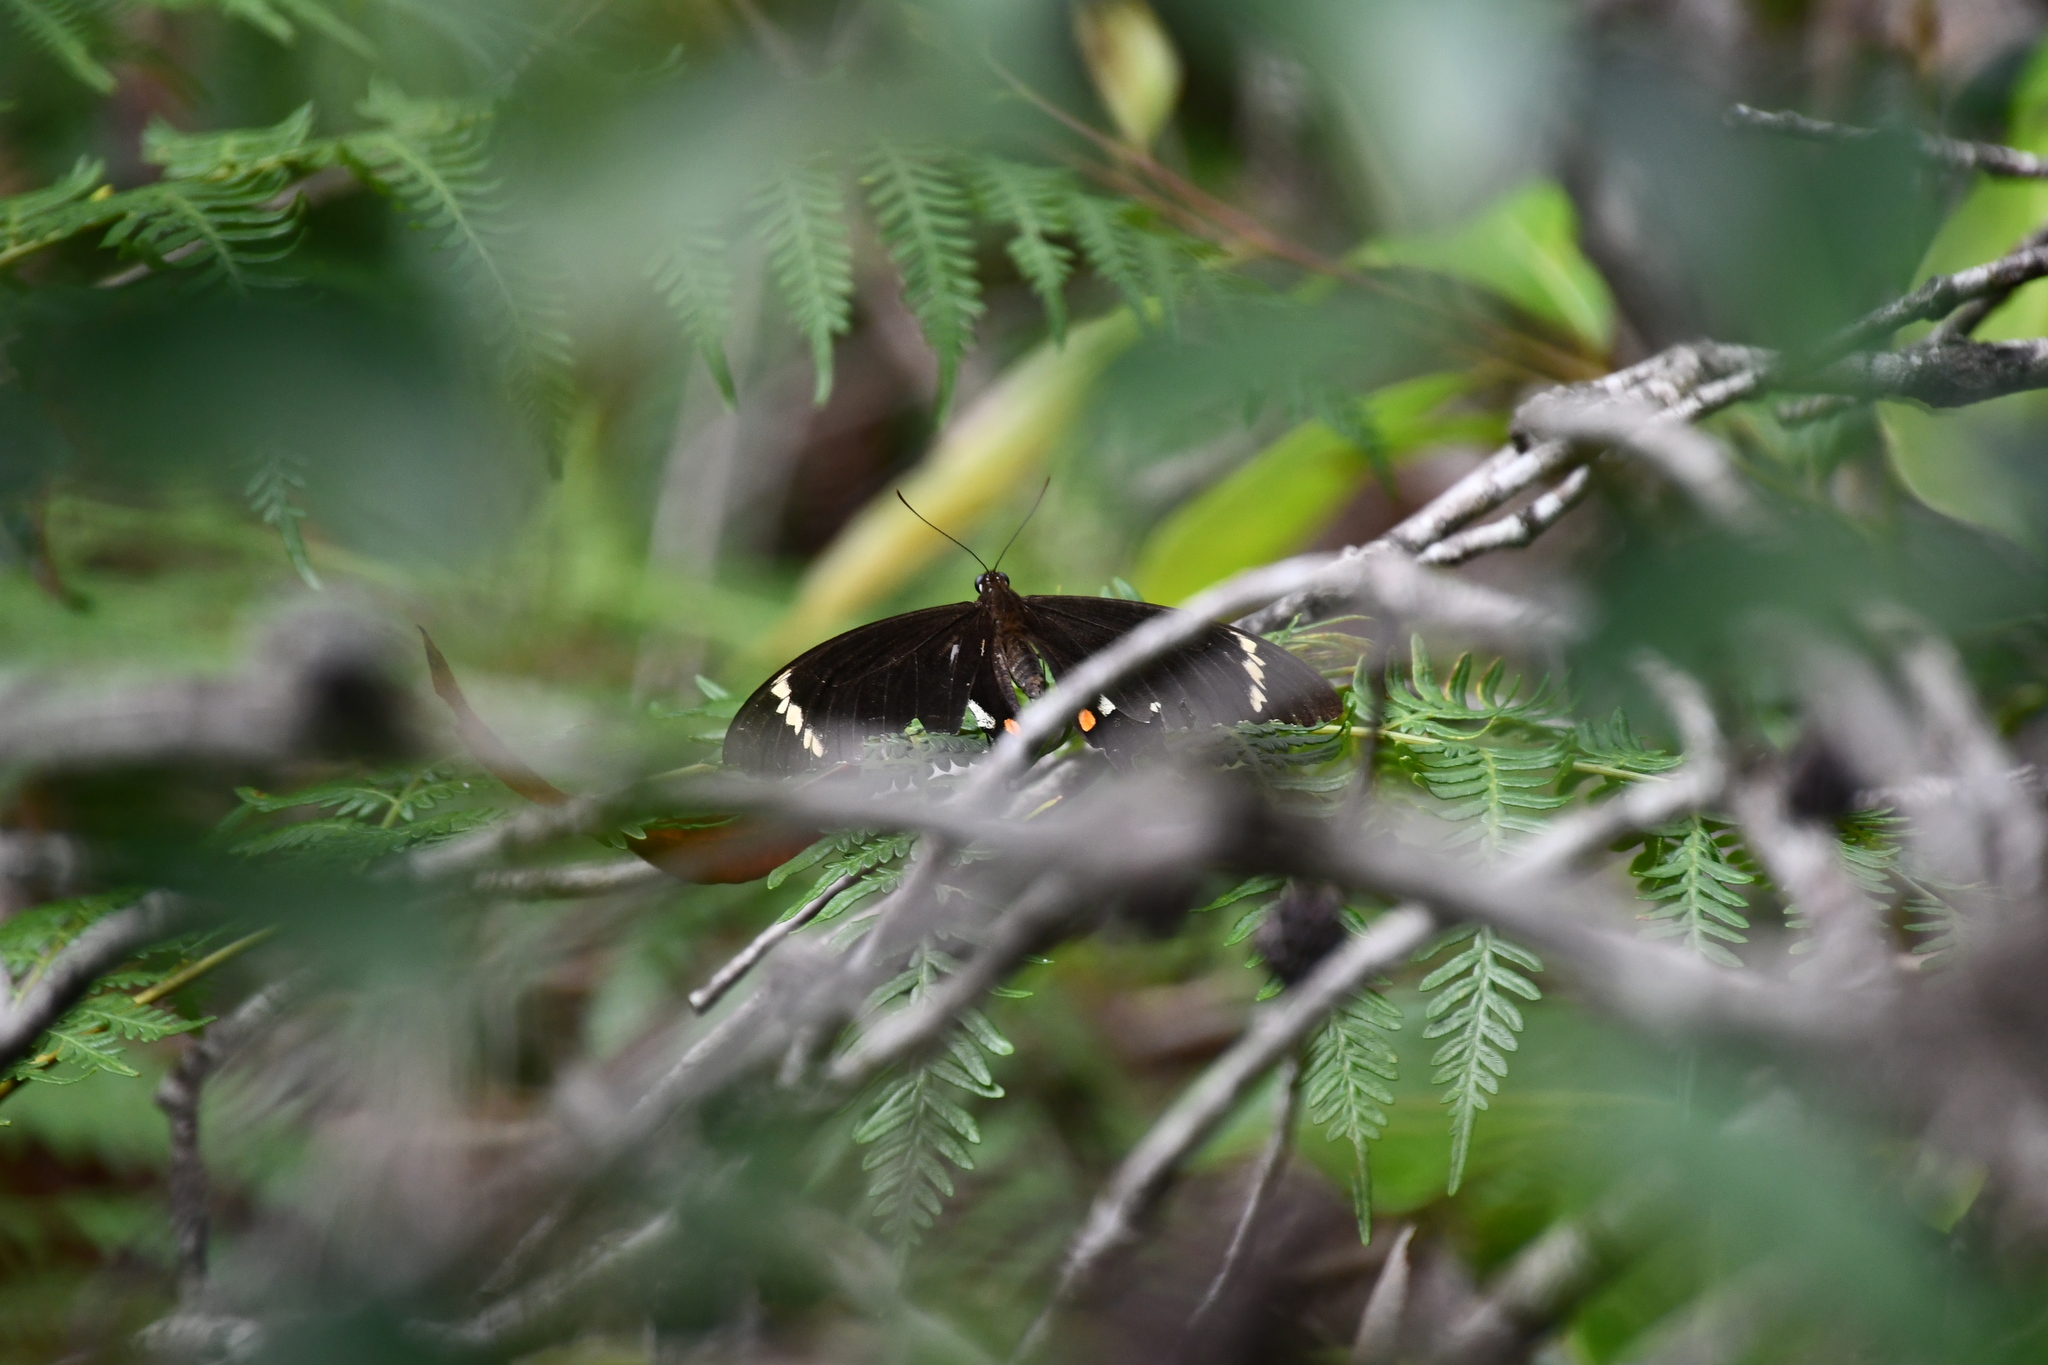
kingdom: Animalia
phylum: Arthropoda
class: Insecta
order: Lepidoptera
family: Papilionidae
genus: Papilio
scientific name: Papilio aegeus
